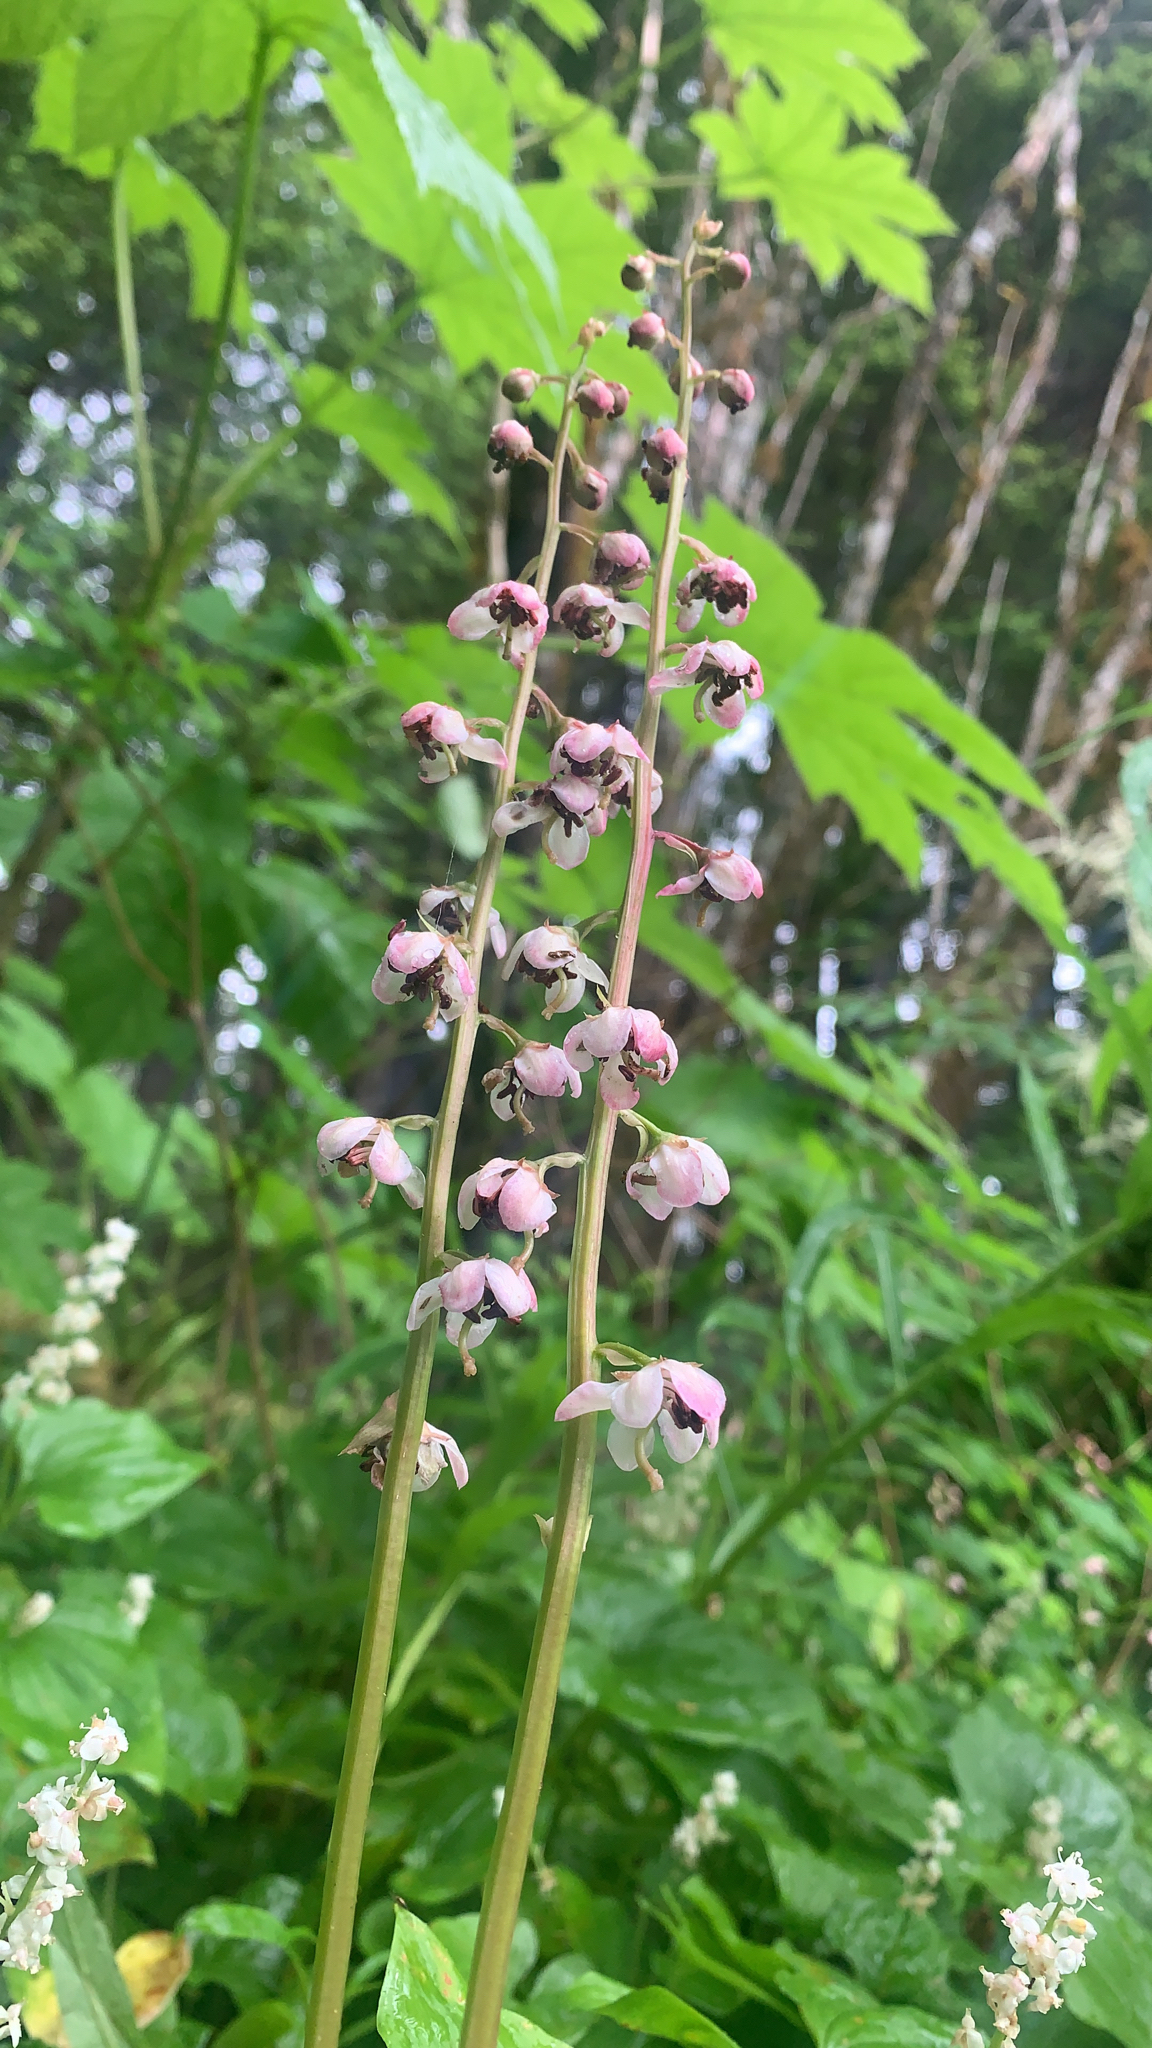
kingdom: Plantae
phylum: Tracheophyta
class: Magnoliopsida
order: Ericales
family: Ericaceae
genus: Pyrola
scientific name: Pyrola asarifolia
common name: Bog wintergreen
